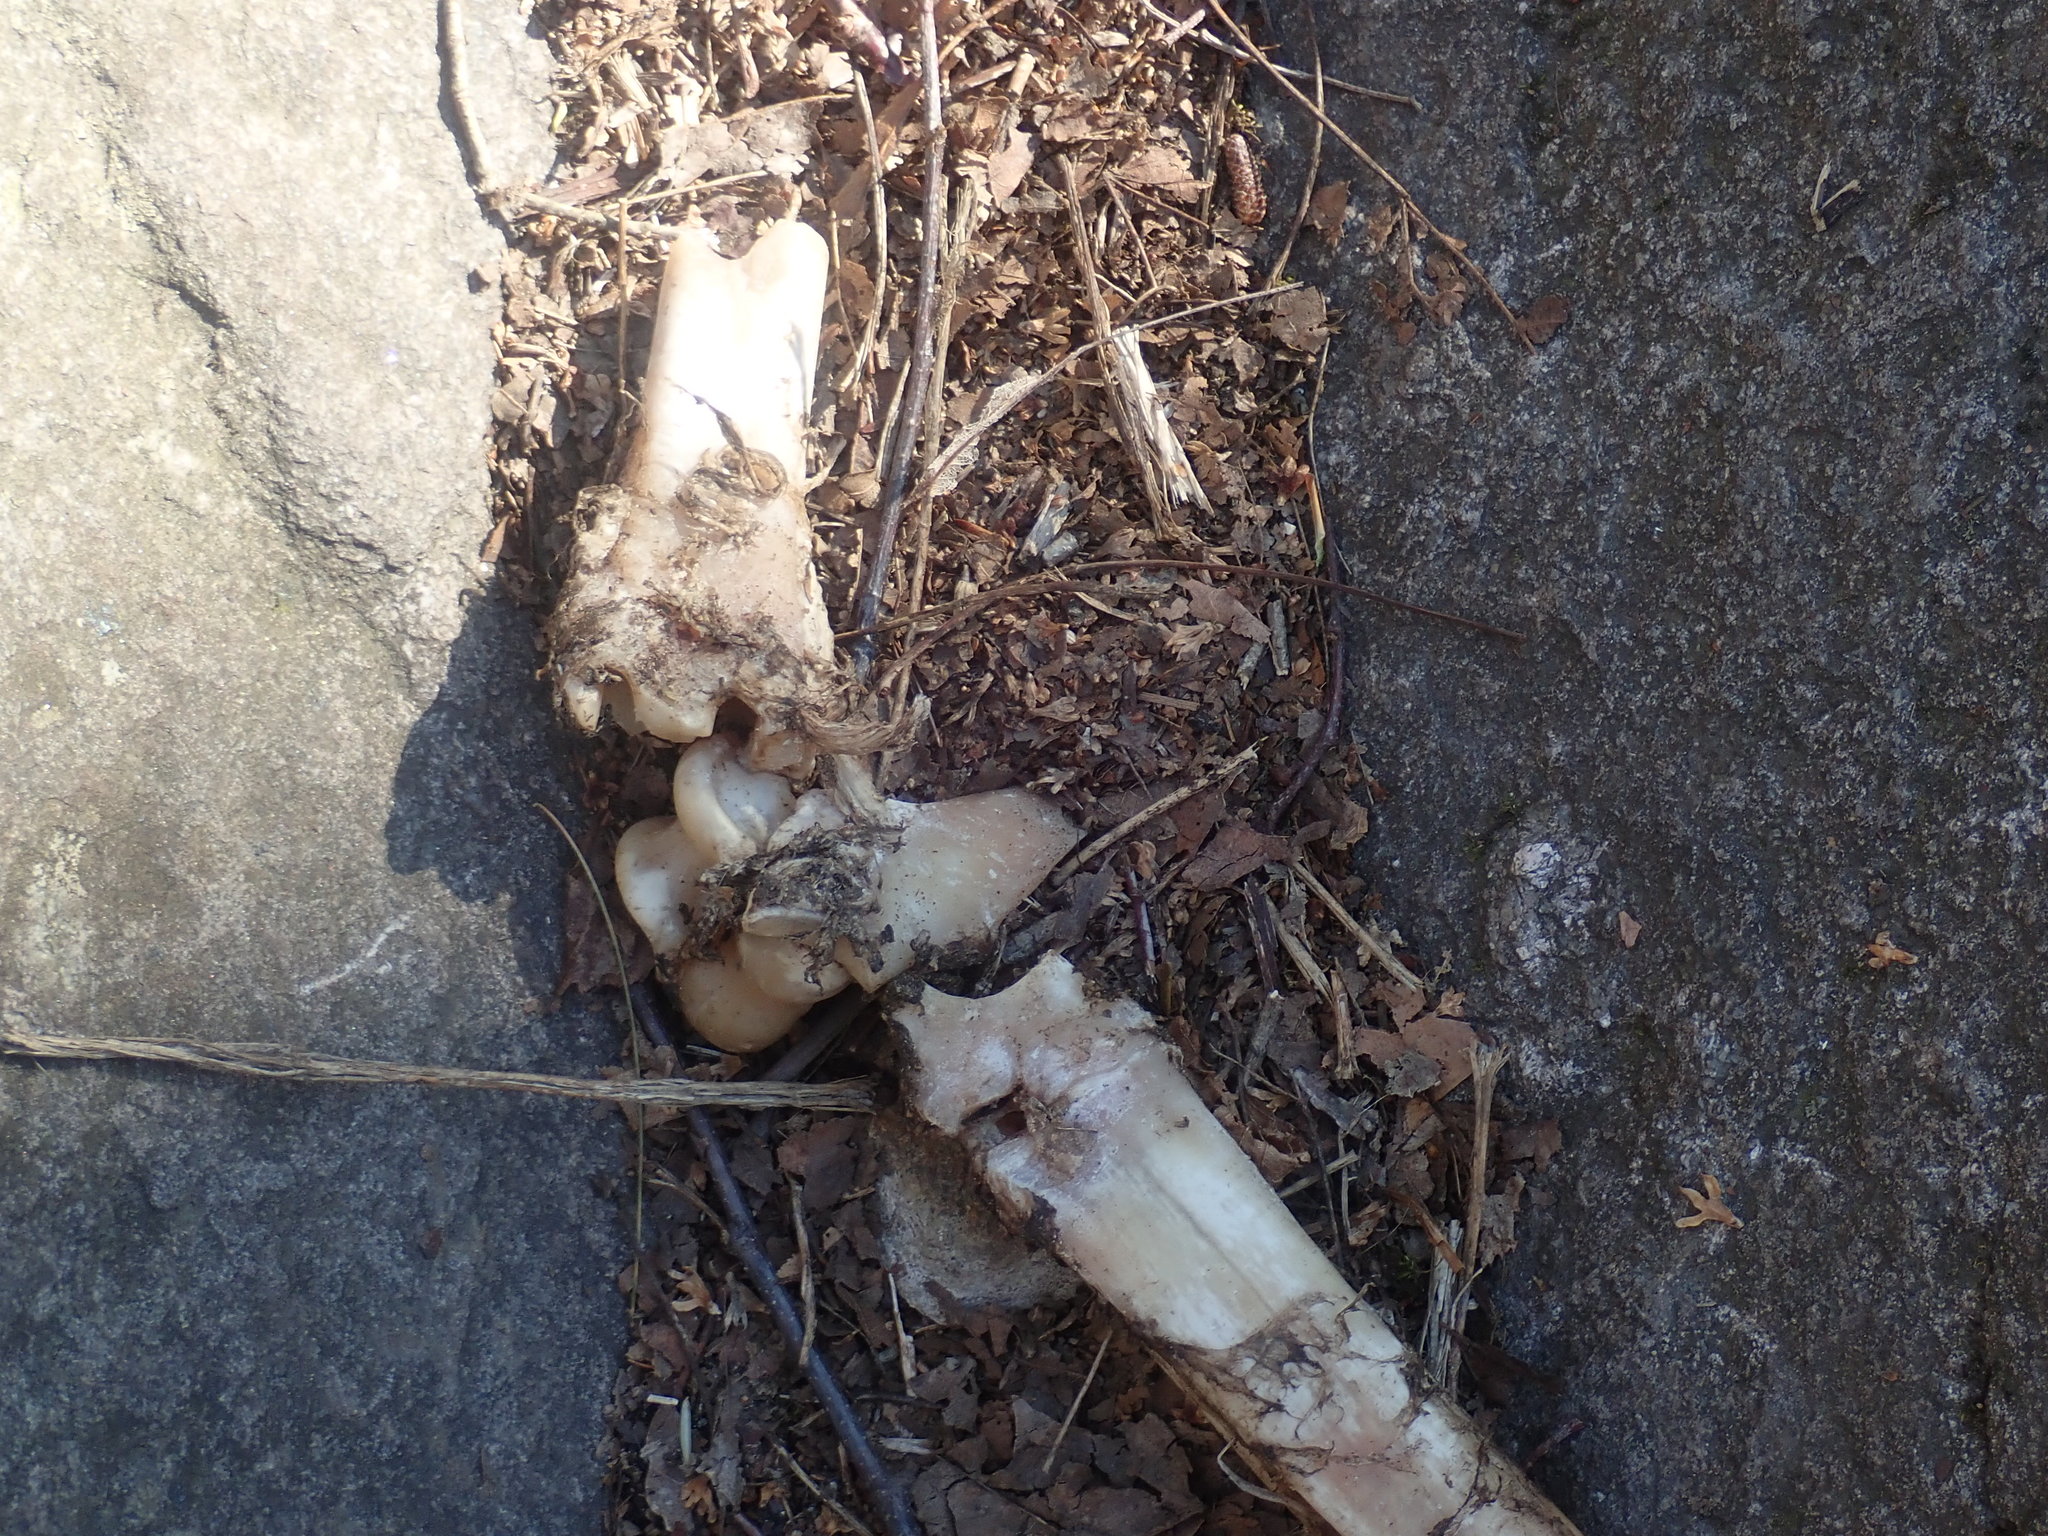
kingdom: Animalia
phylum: Chordata
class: Mammalia
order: Artiodactyla
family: Cervidae
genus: Odocoileus
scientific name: Odocoileus virginianus
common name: White-tailed deer
